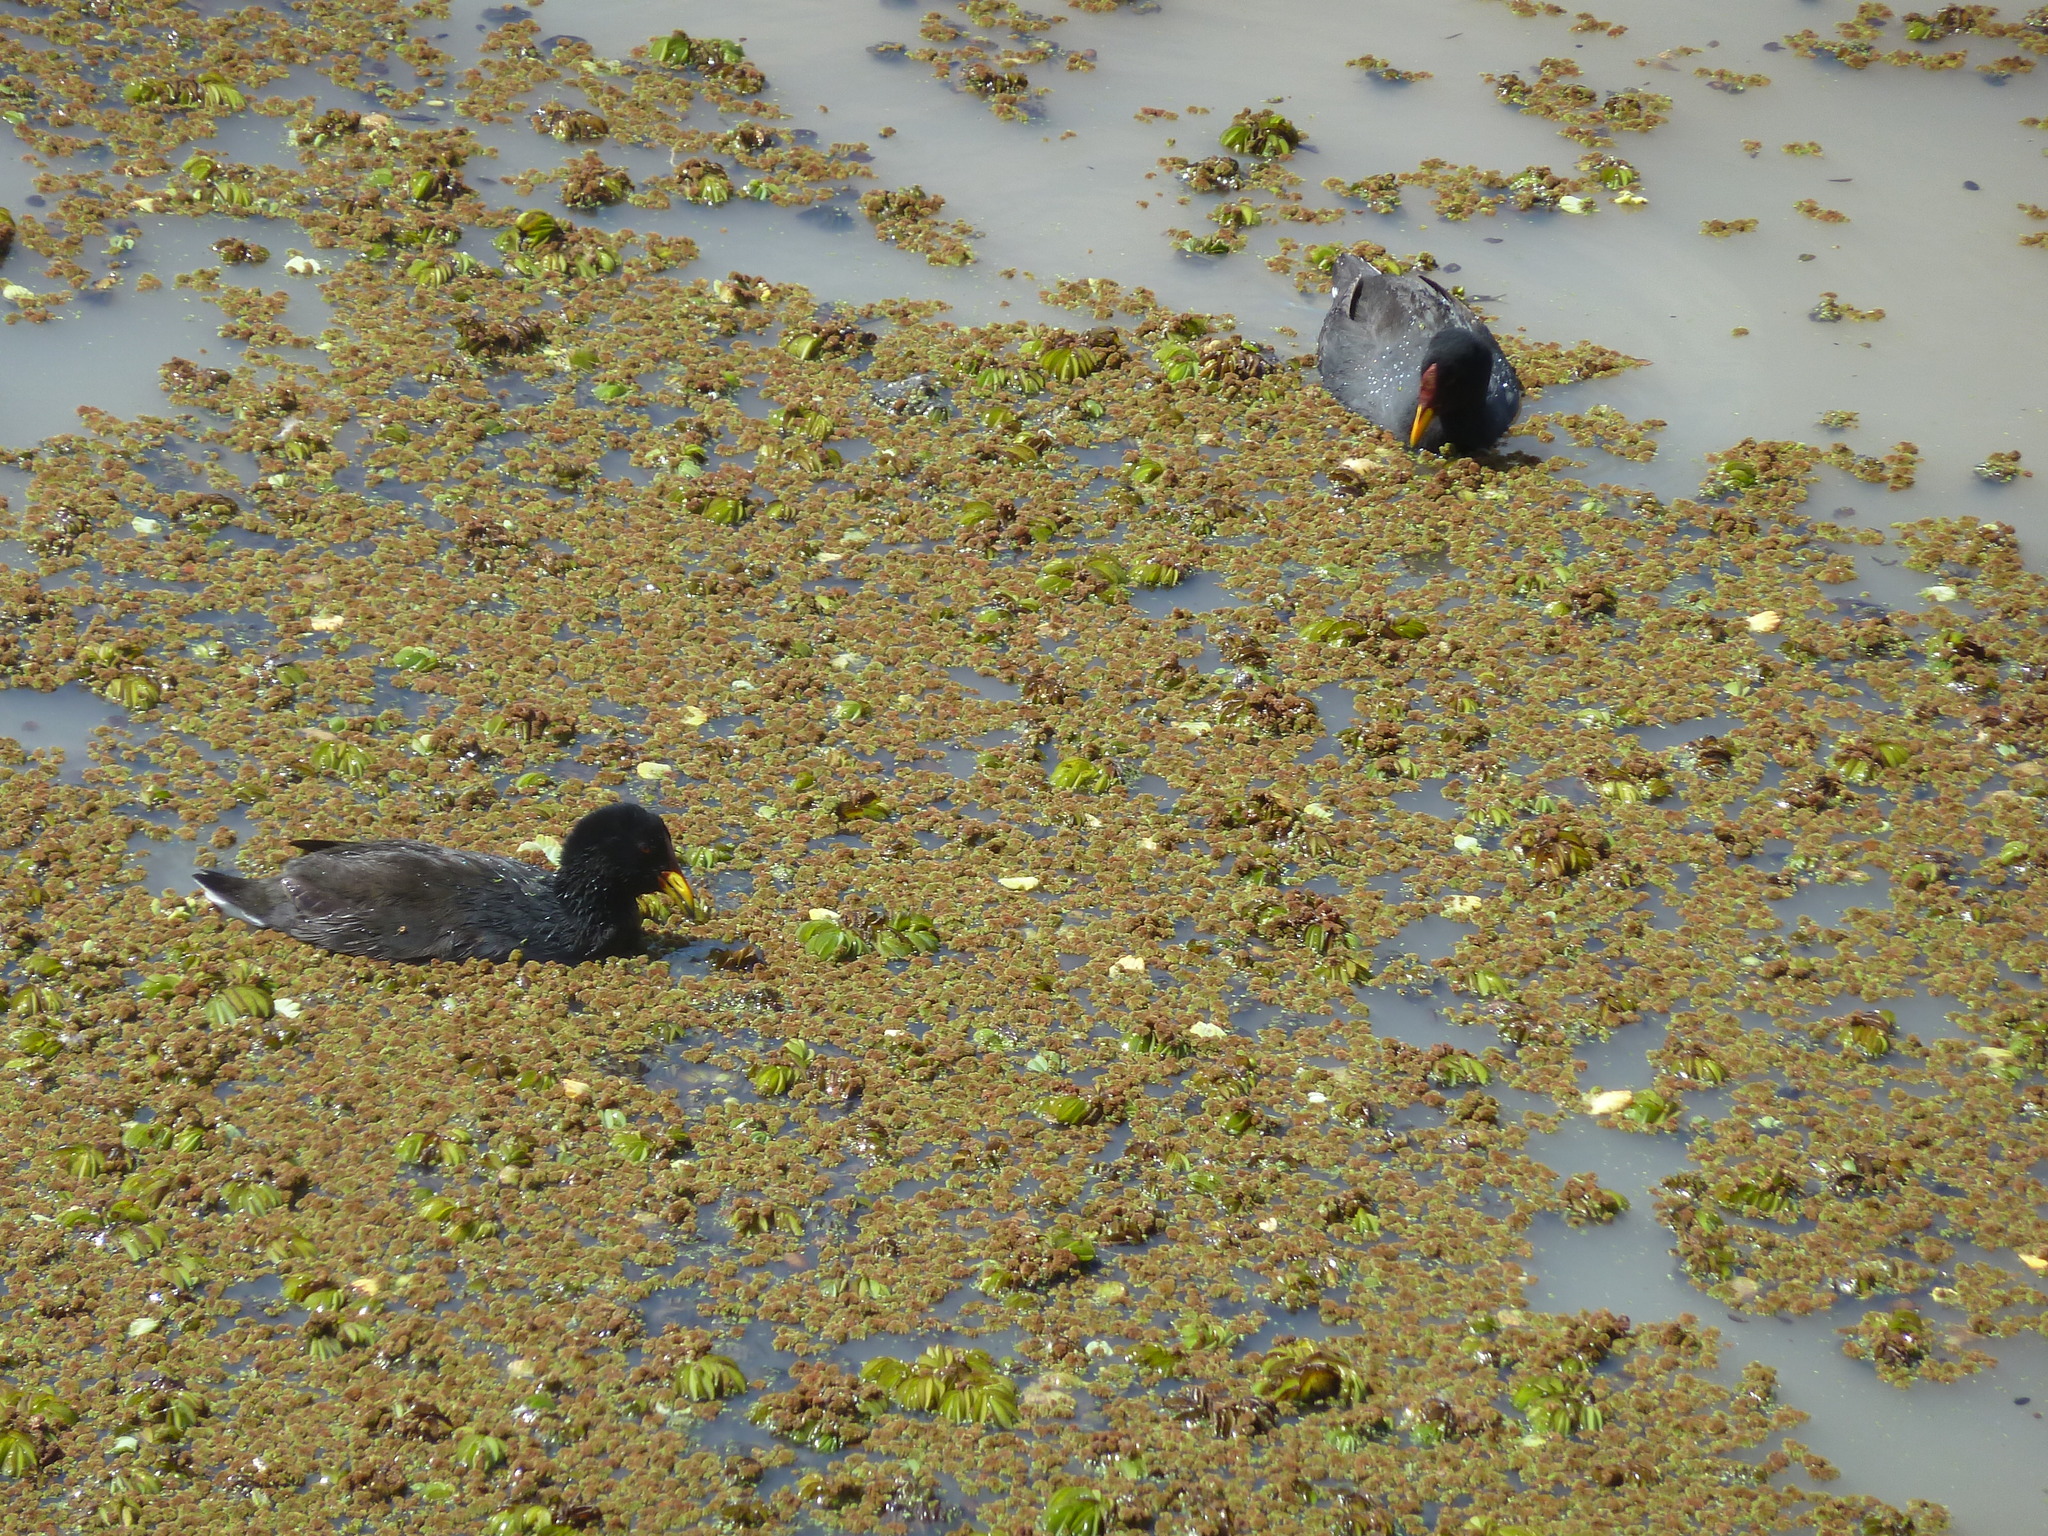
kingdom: Animalia
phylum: Chordata
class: Aves
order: Gruiformes
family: Rallidae
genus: Fulica
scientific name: Fulica rufifrons
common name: Red-fronted coot
